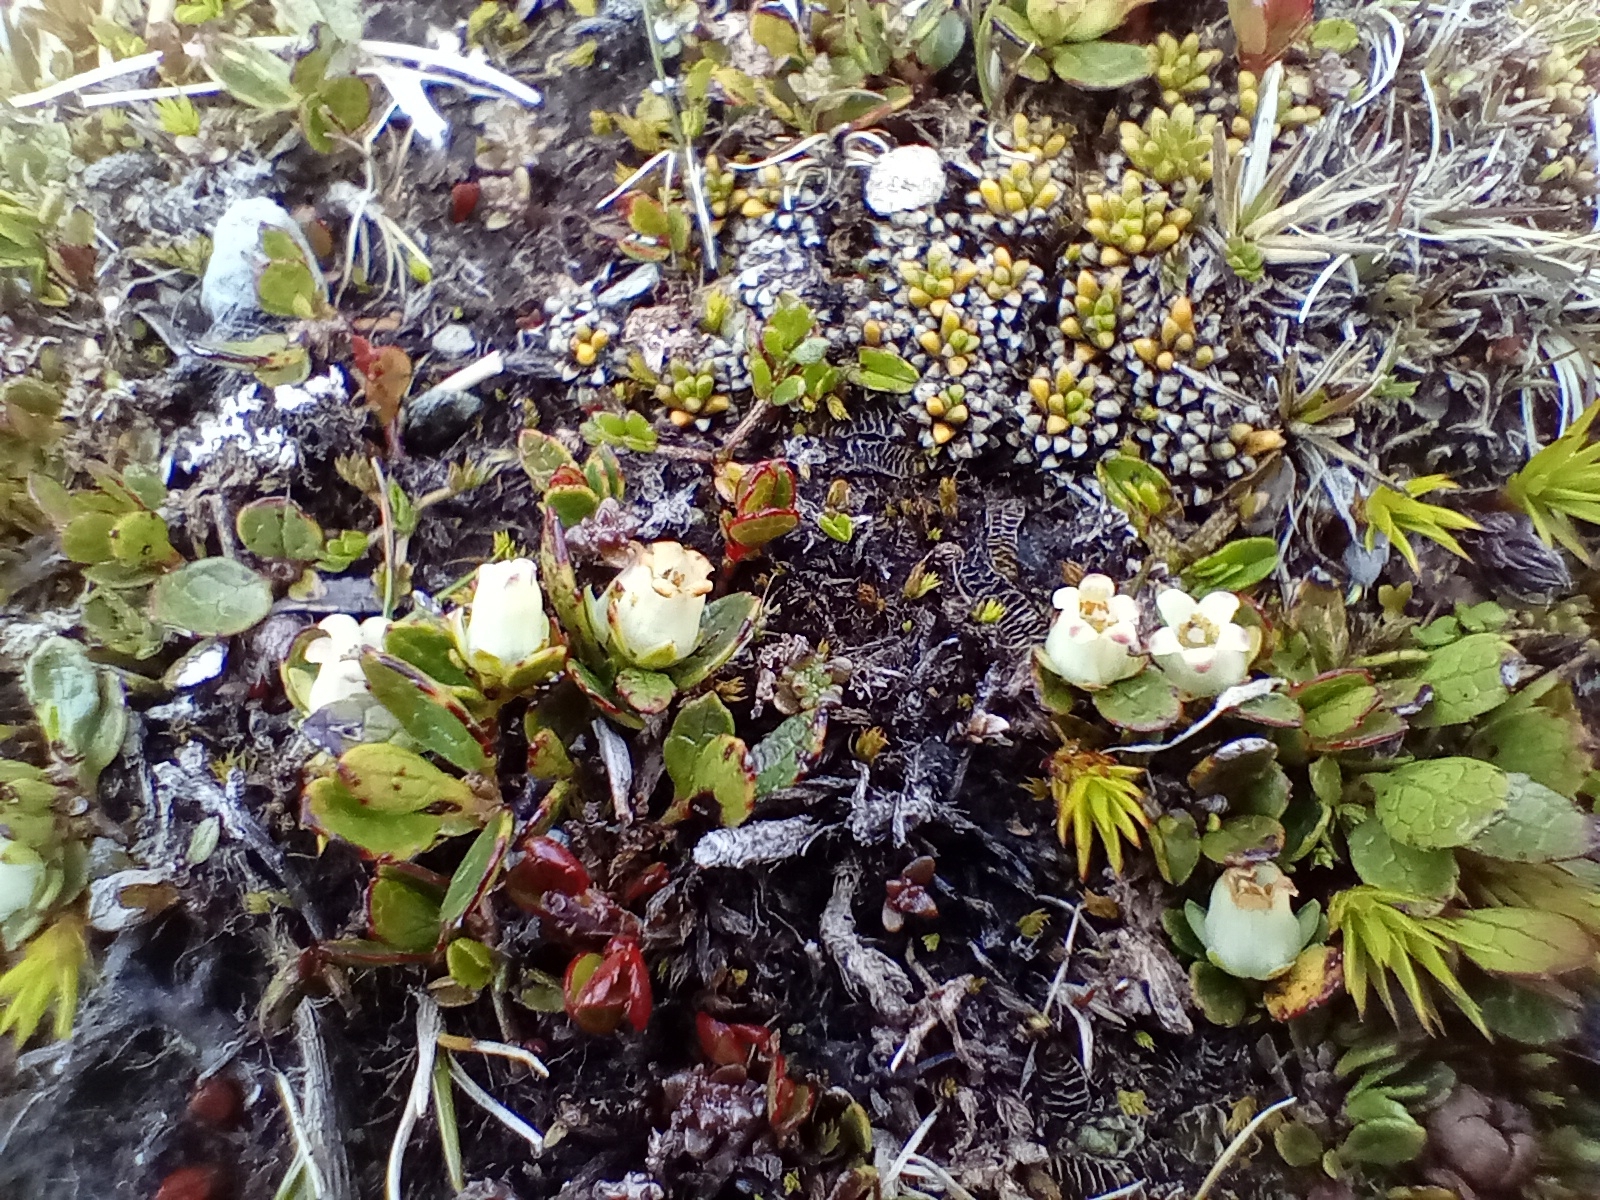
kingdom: Plantae
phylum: Tracheophyta
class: Magnoliopsida
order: Ericales
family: Ericaceae
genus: Gaultheria
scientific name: Gaultheria nubicola
